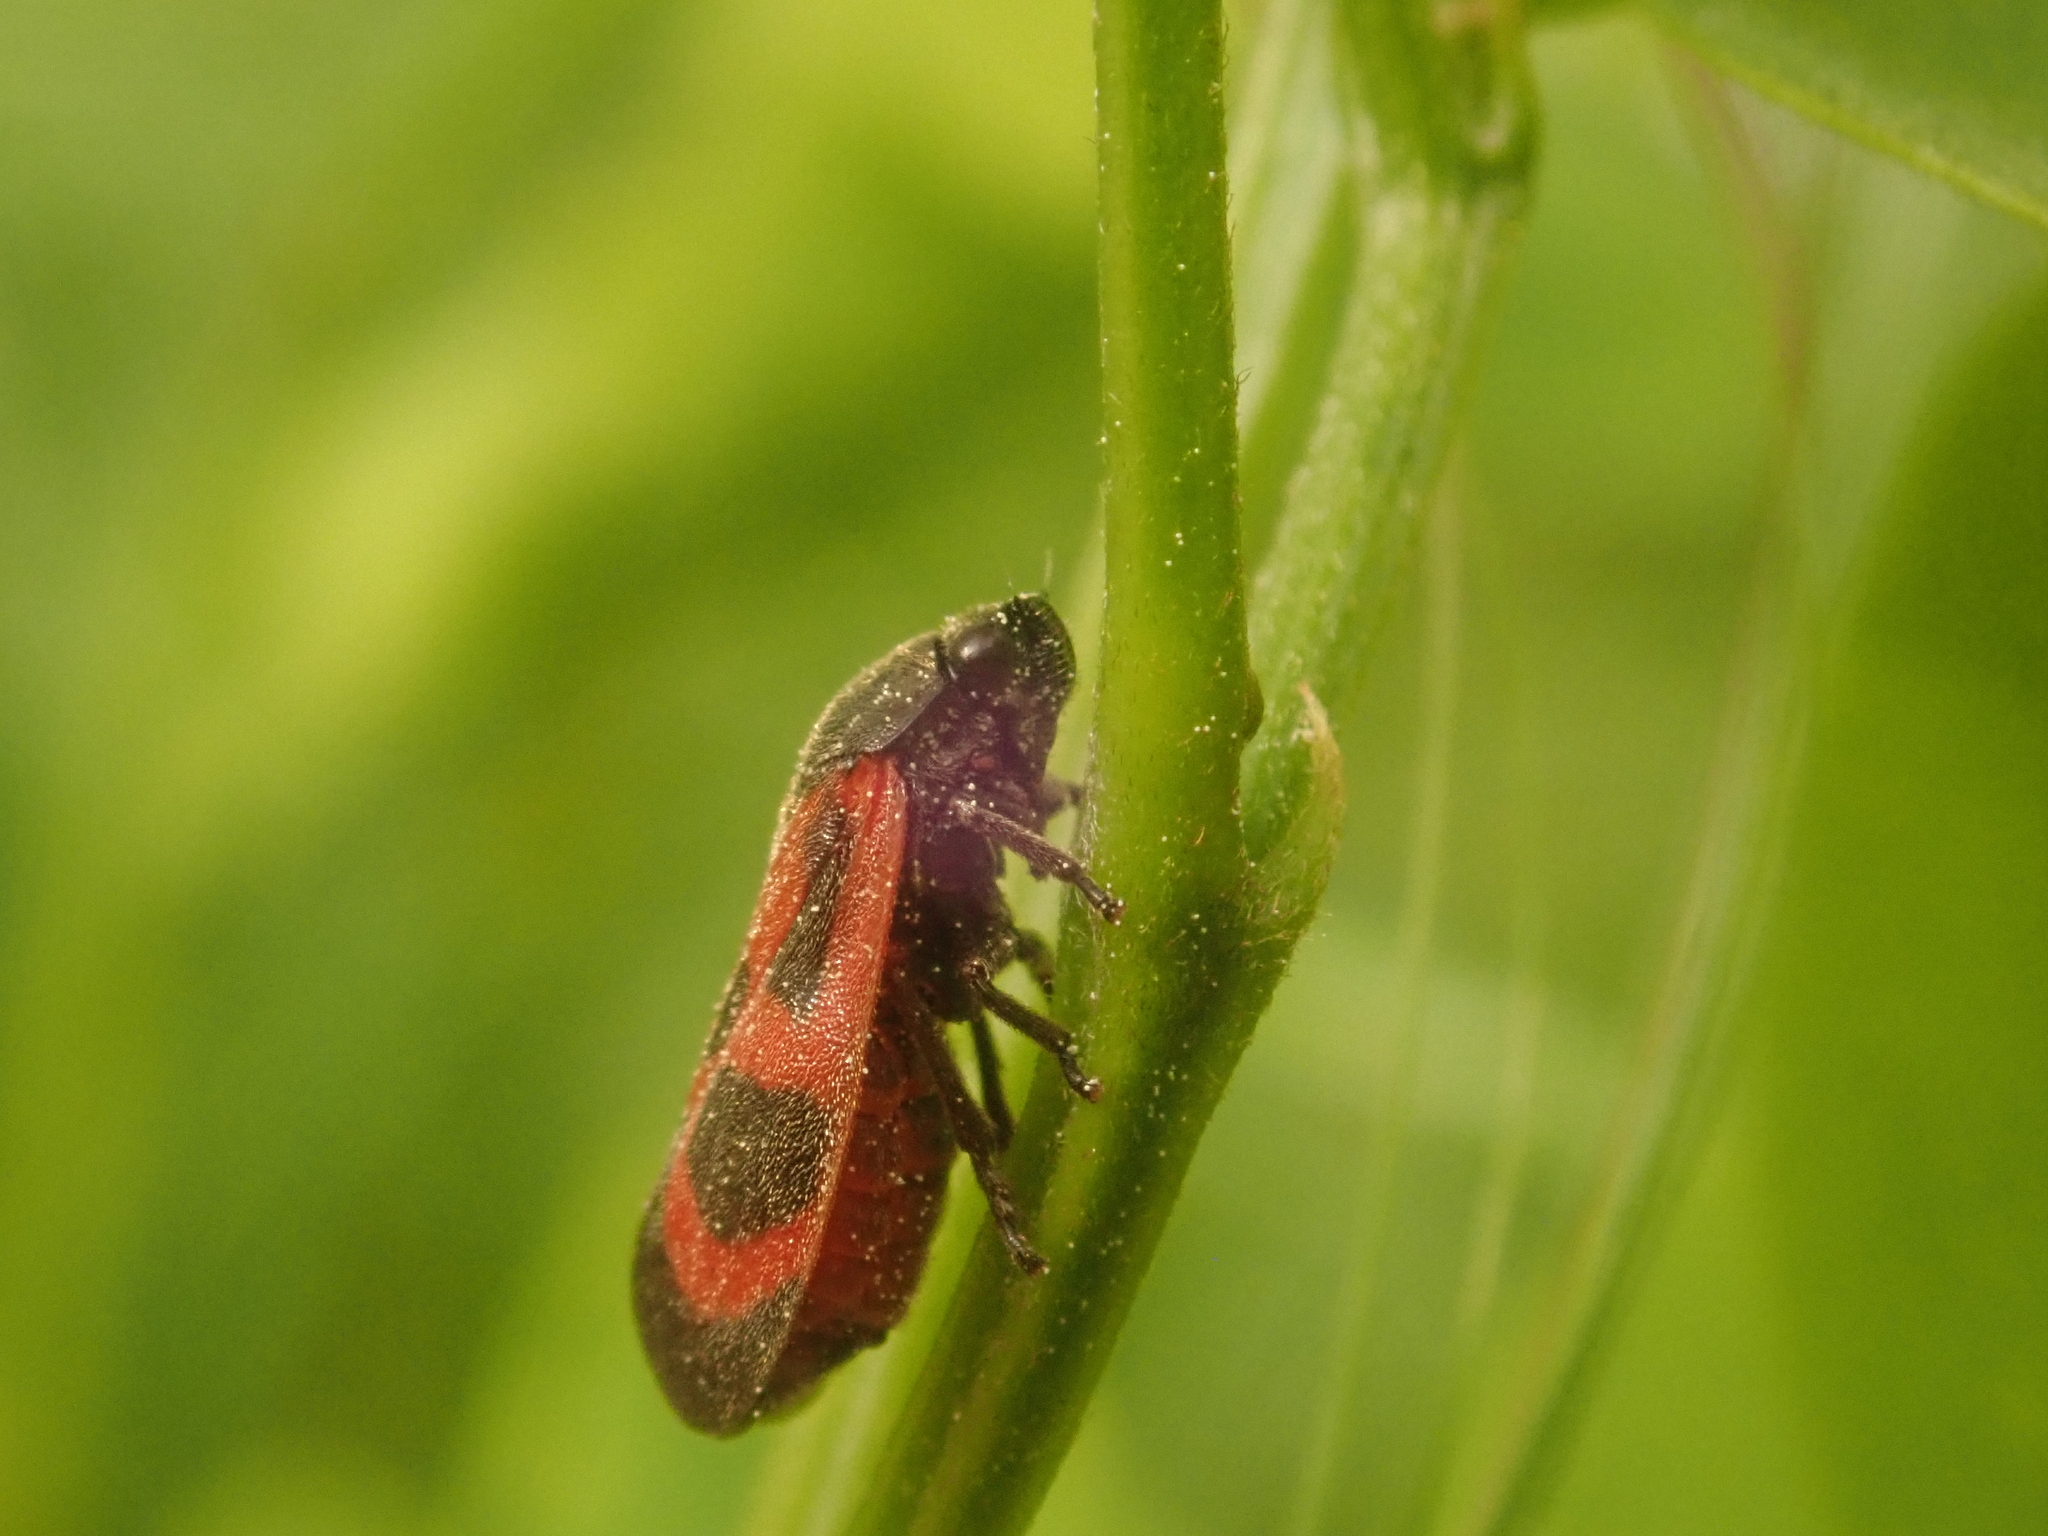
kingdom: Animalia
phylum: Arthropoda
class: Insecta
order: Hemiptera
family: Cercopidae
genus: Haematoloma
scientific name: Haematoloma dorsata
